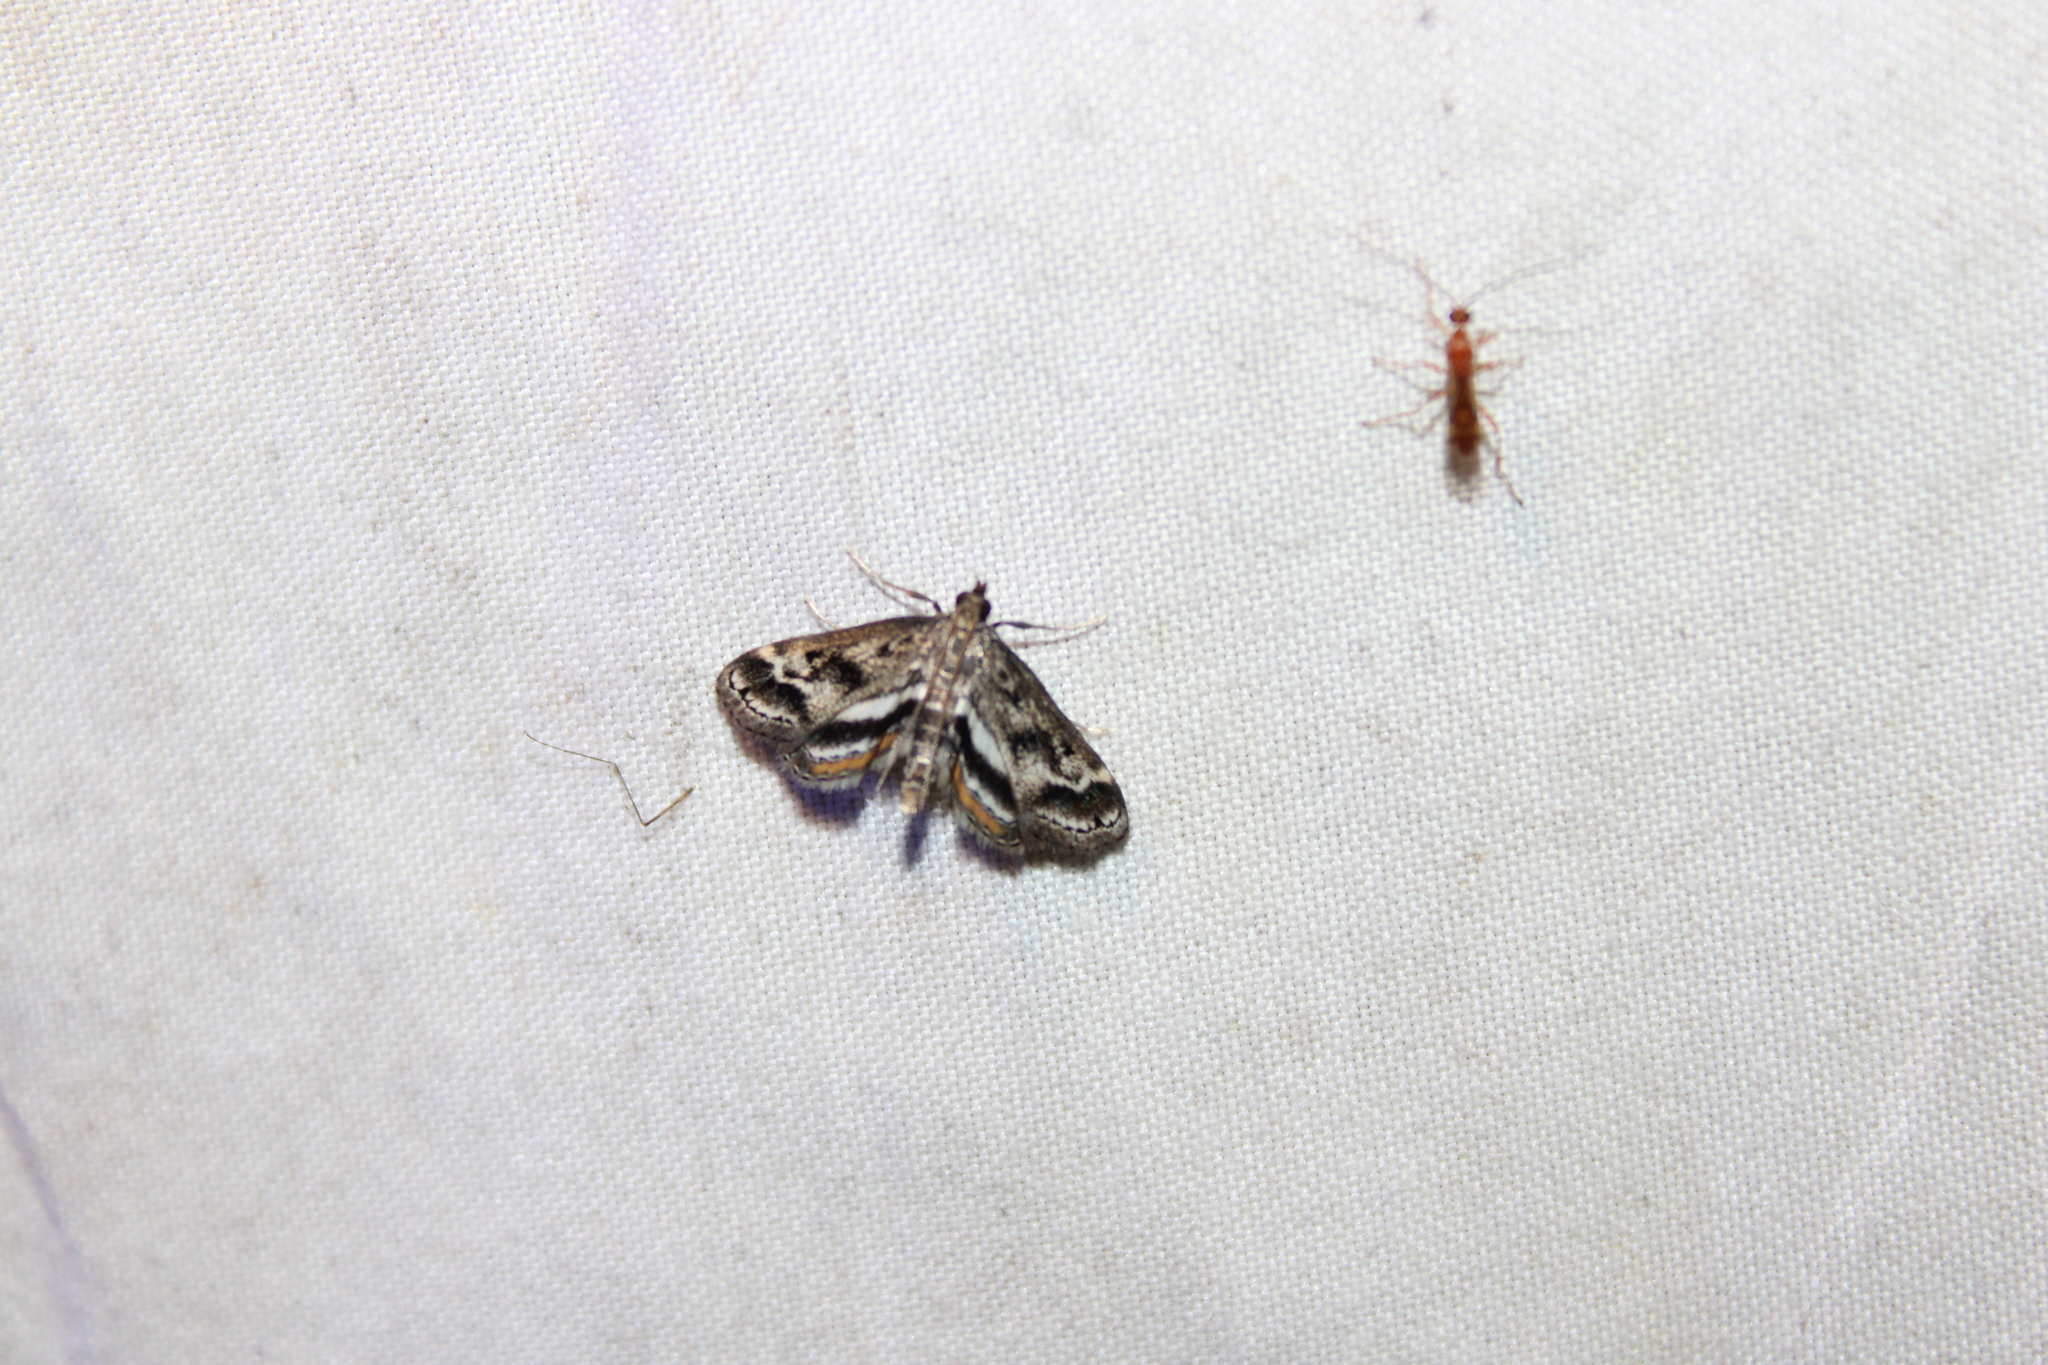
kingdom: Animalia
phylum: Arthropoda
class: Insecta
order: Lepidoptera
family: Crambidae
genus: Parapoynx
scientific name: Parapoynx obscuralis
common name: American china-mark
